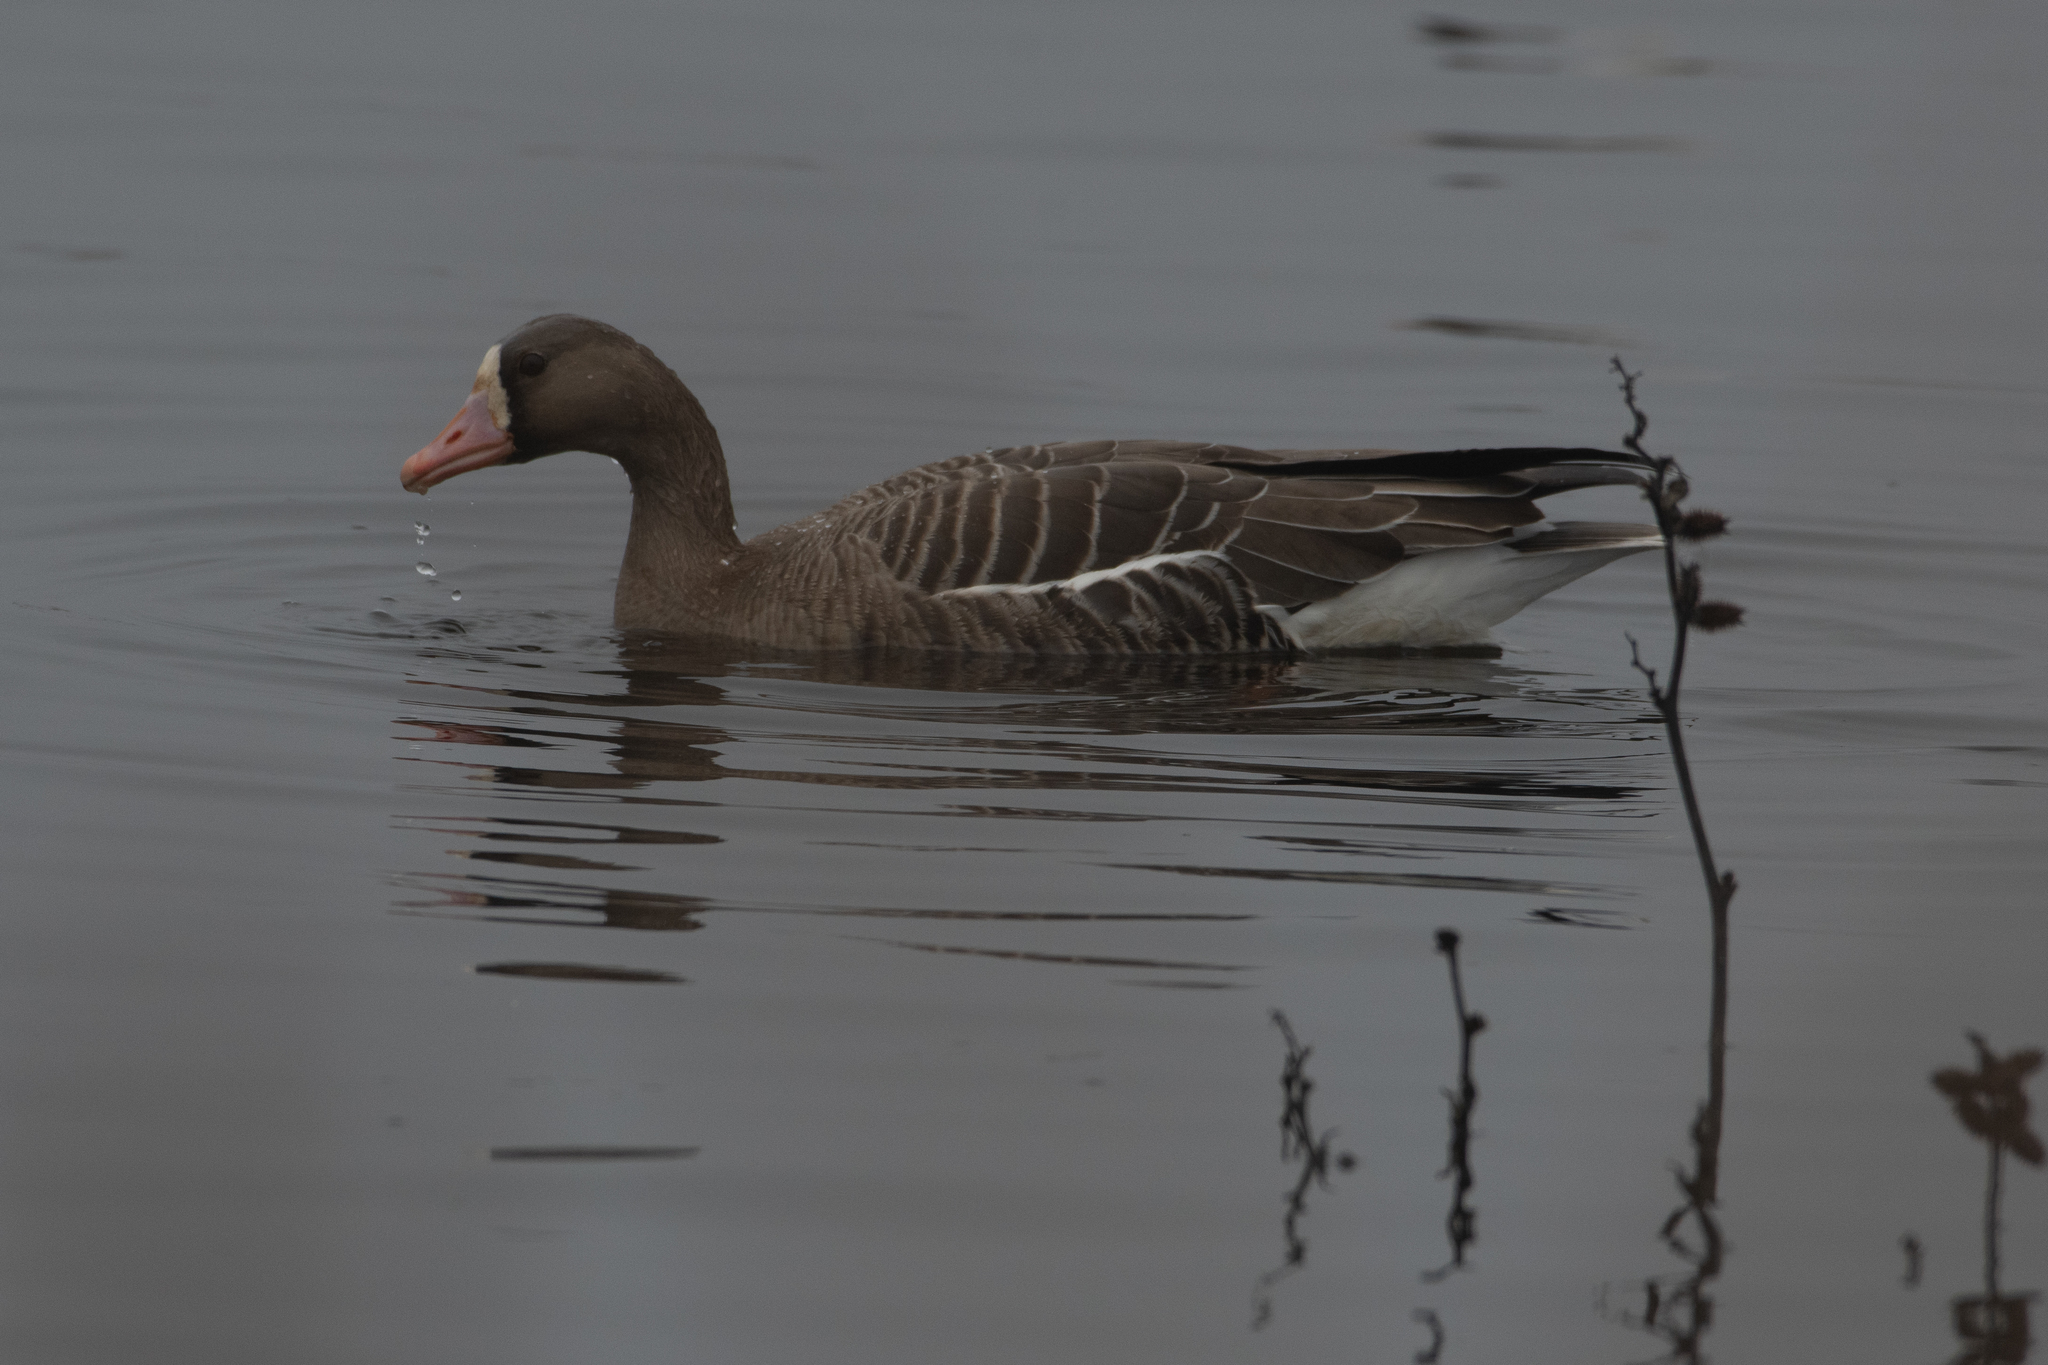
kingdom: Animalia
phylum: Chordata
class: Aves
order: Anseriformes
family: Anatidae
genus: Anser
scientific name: Anser albifrons
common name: Greater white-fronted goose
